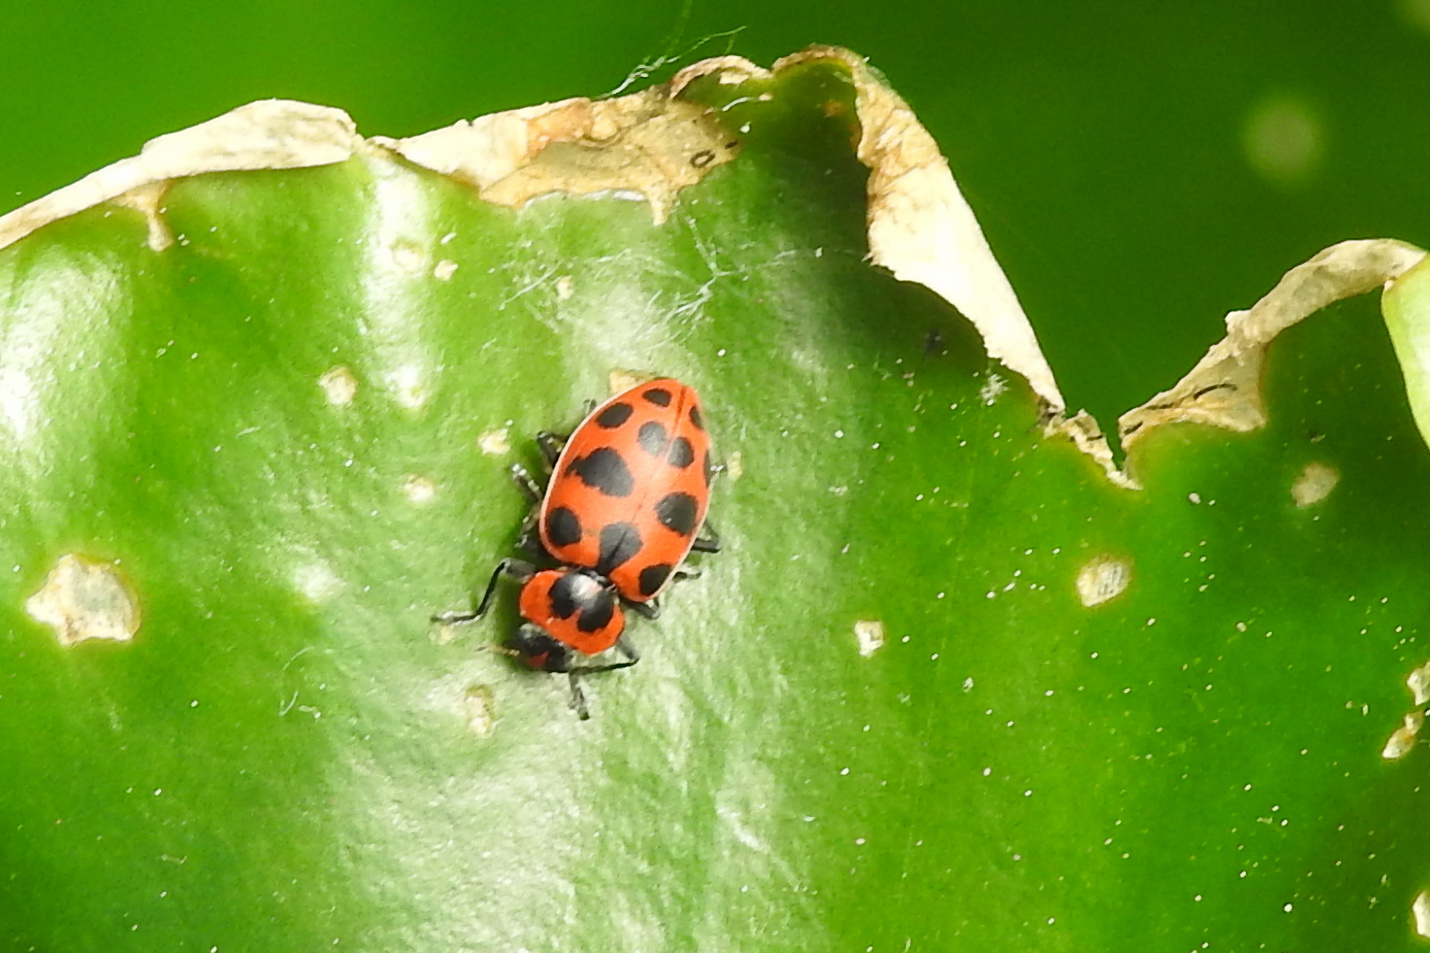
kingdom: Animalia
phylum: Arthropoda
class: Insecta
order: Coleoptera
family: Coccinellidae
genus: Coleomegilla
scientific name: Coleomegilla maculata
